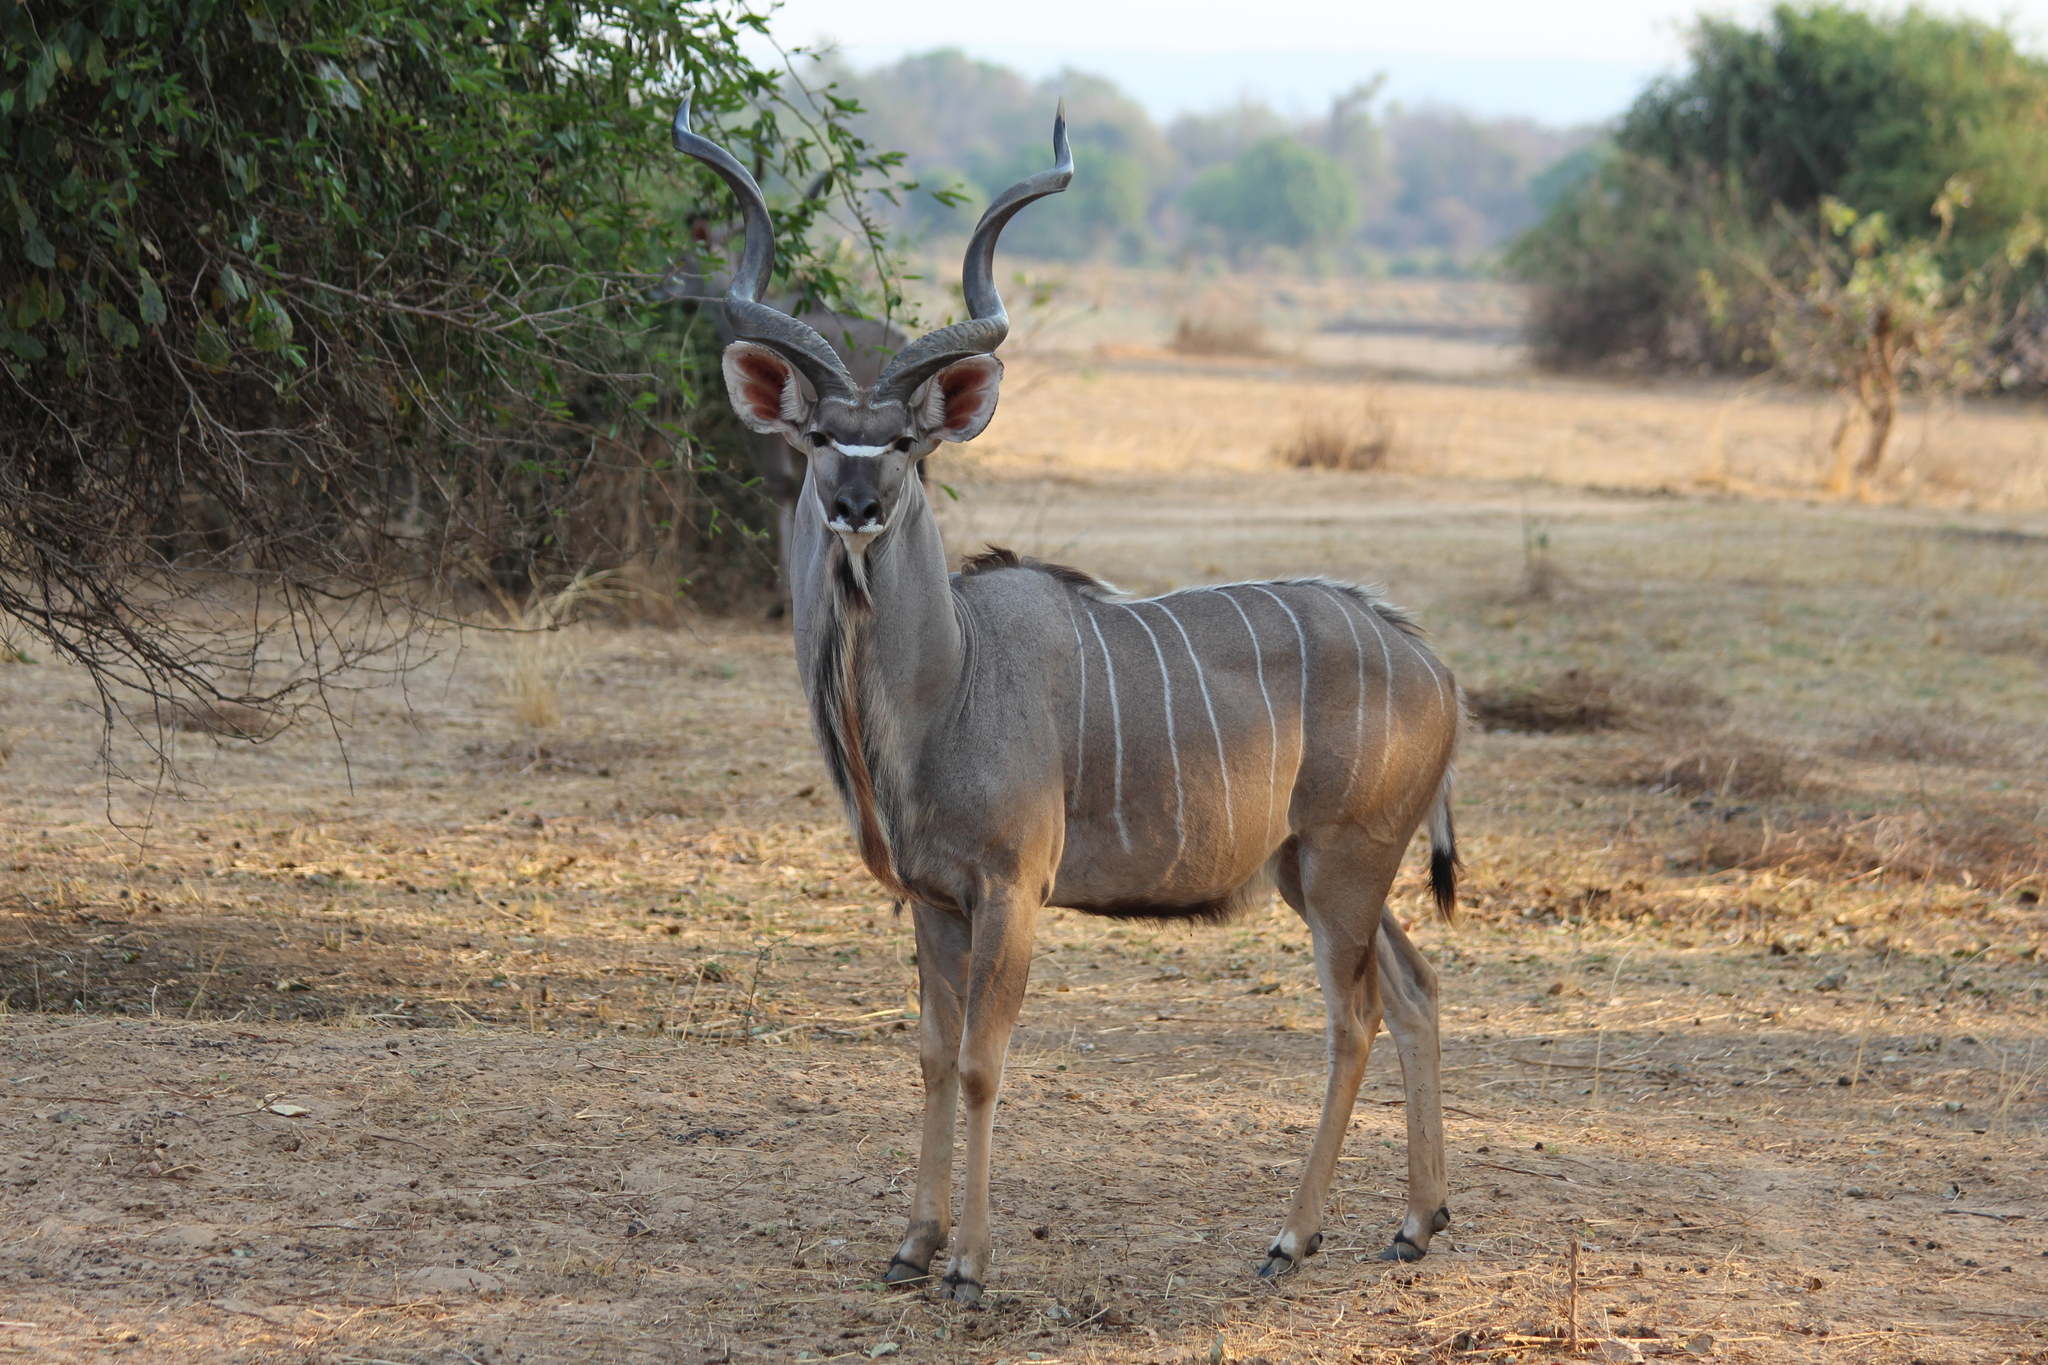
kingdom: Animalia
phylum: Chordata
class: Mammalia
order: Artiodactyla
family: Bovidae
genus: Tragelaphus
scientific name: Tragelaphus strepsiceros
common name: Greater kudu
